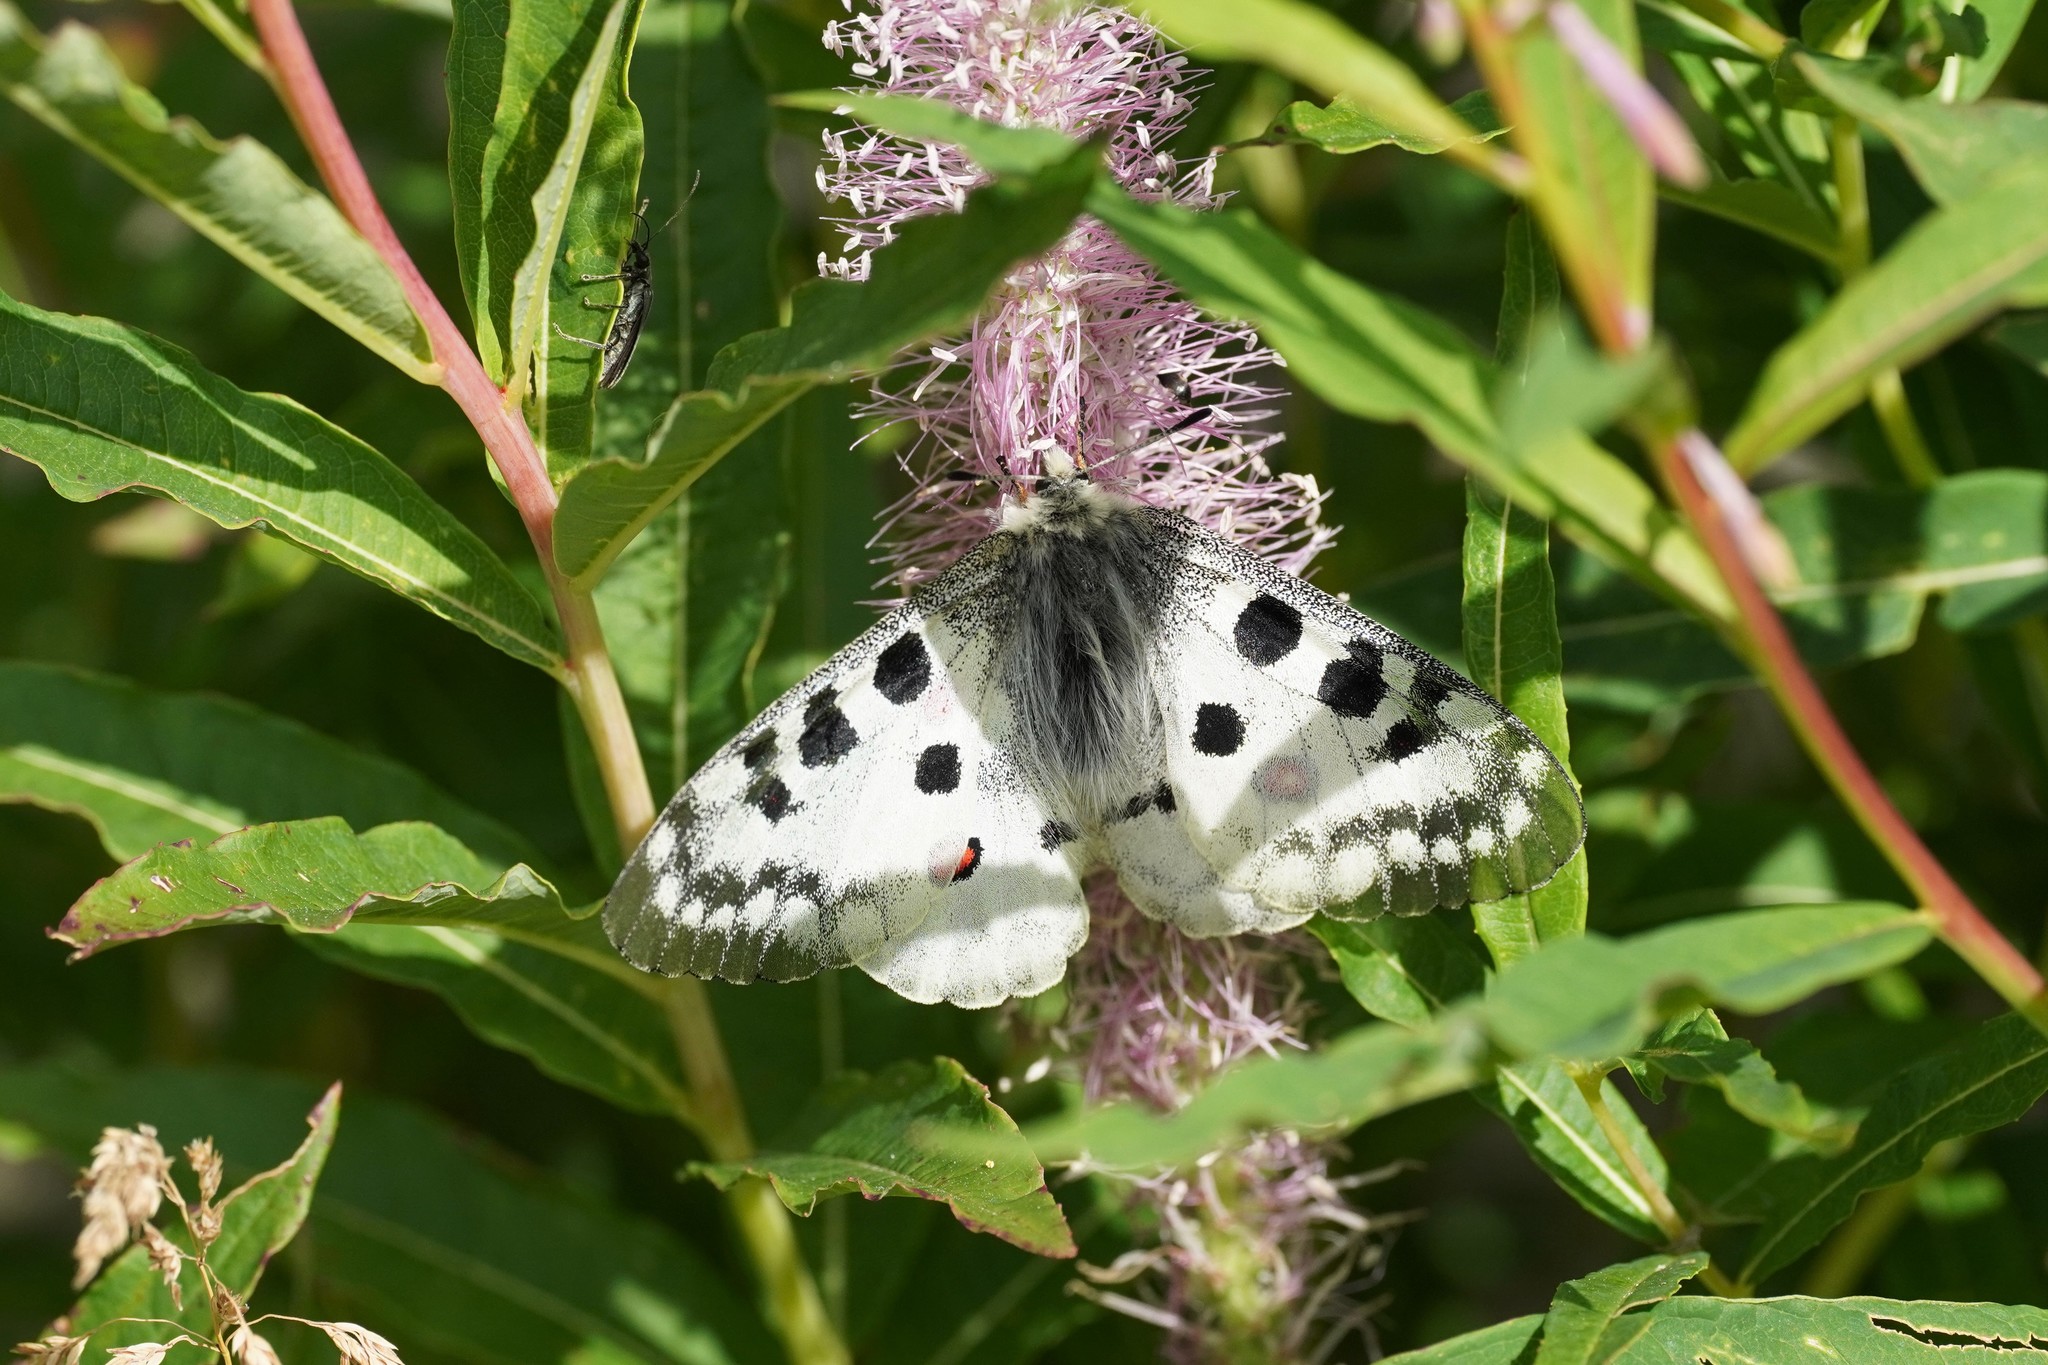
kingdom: Animalia
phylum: Arthropoda
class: Insecta
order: Lepidoptera
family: Papilionidae
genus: Parnassius
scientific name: Parnassius apollo
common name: Apollo
